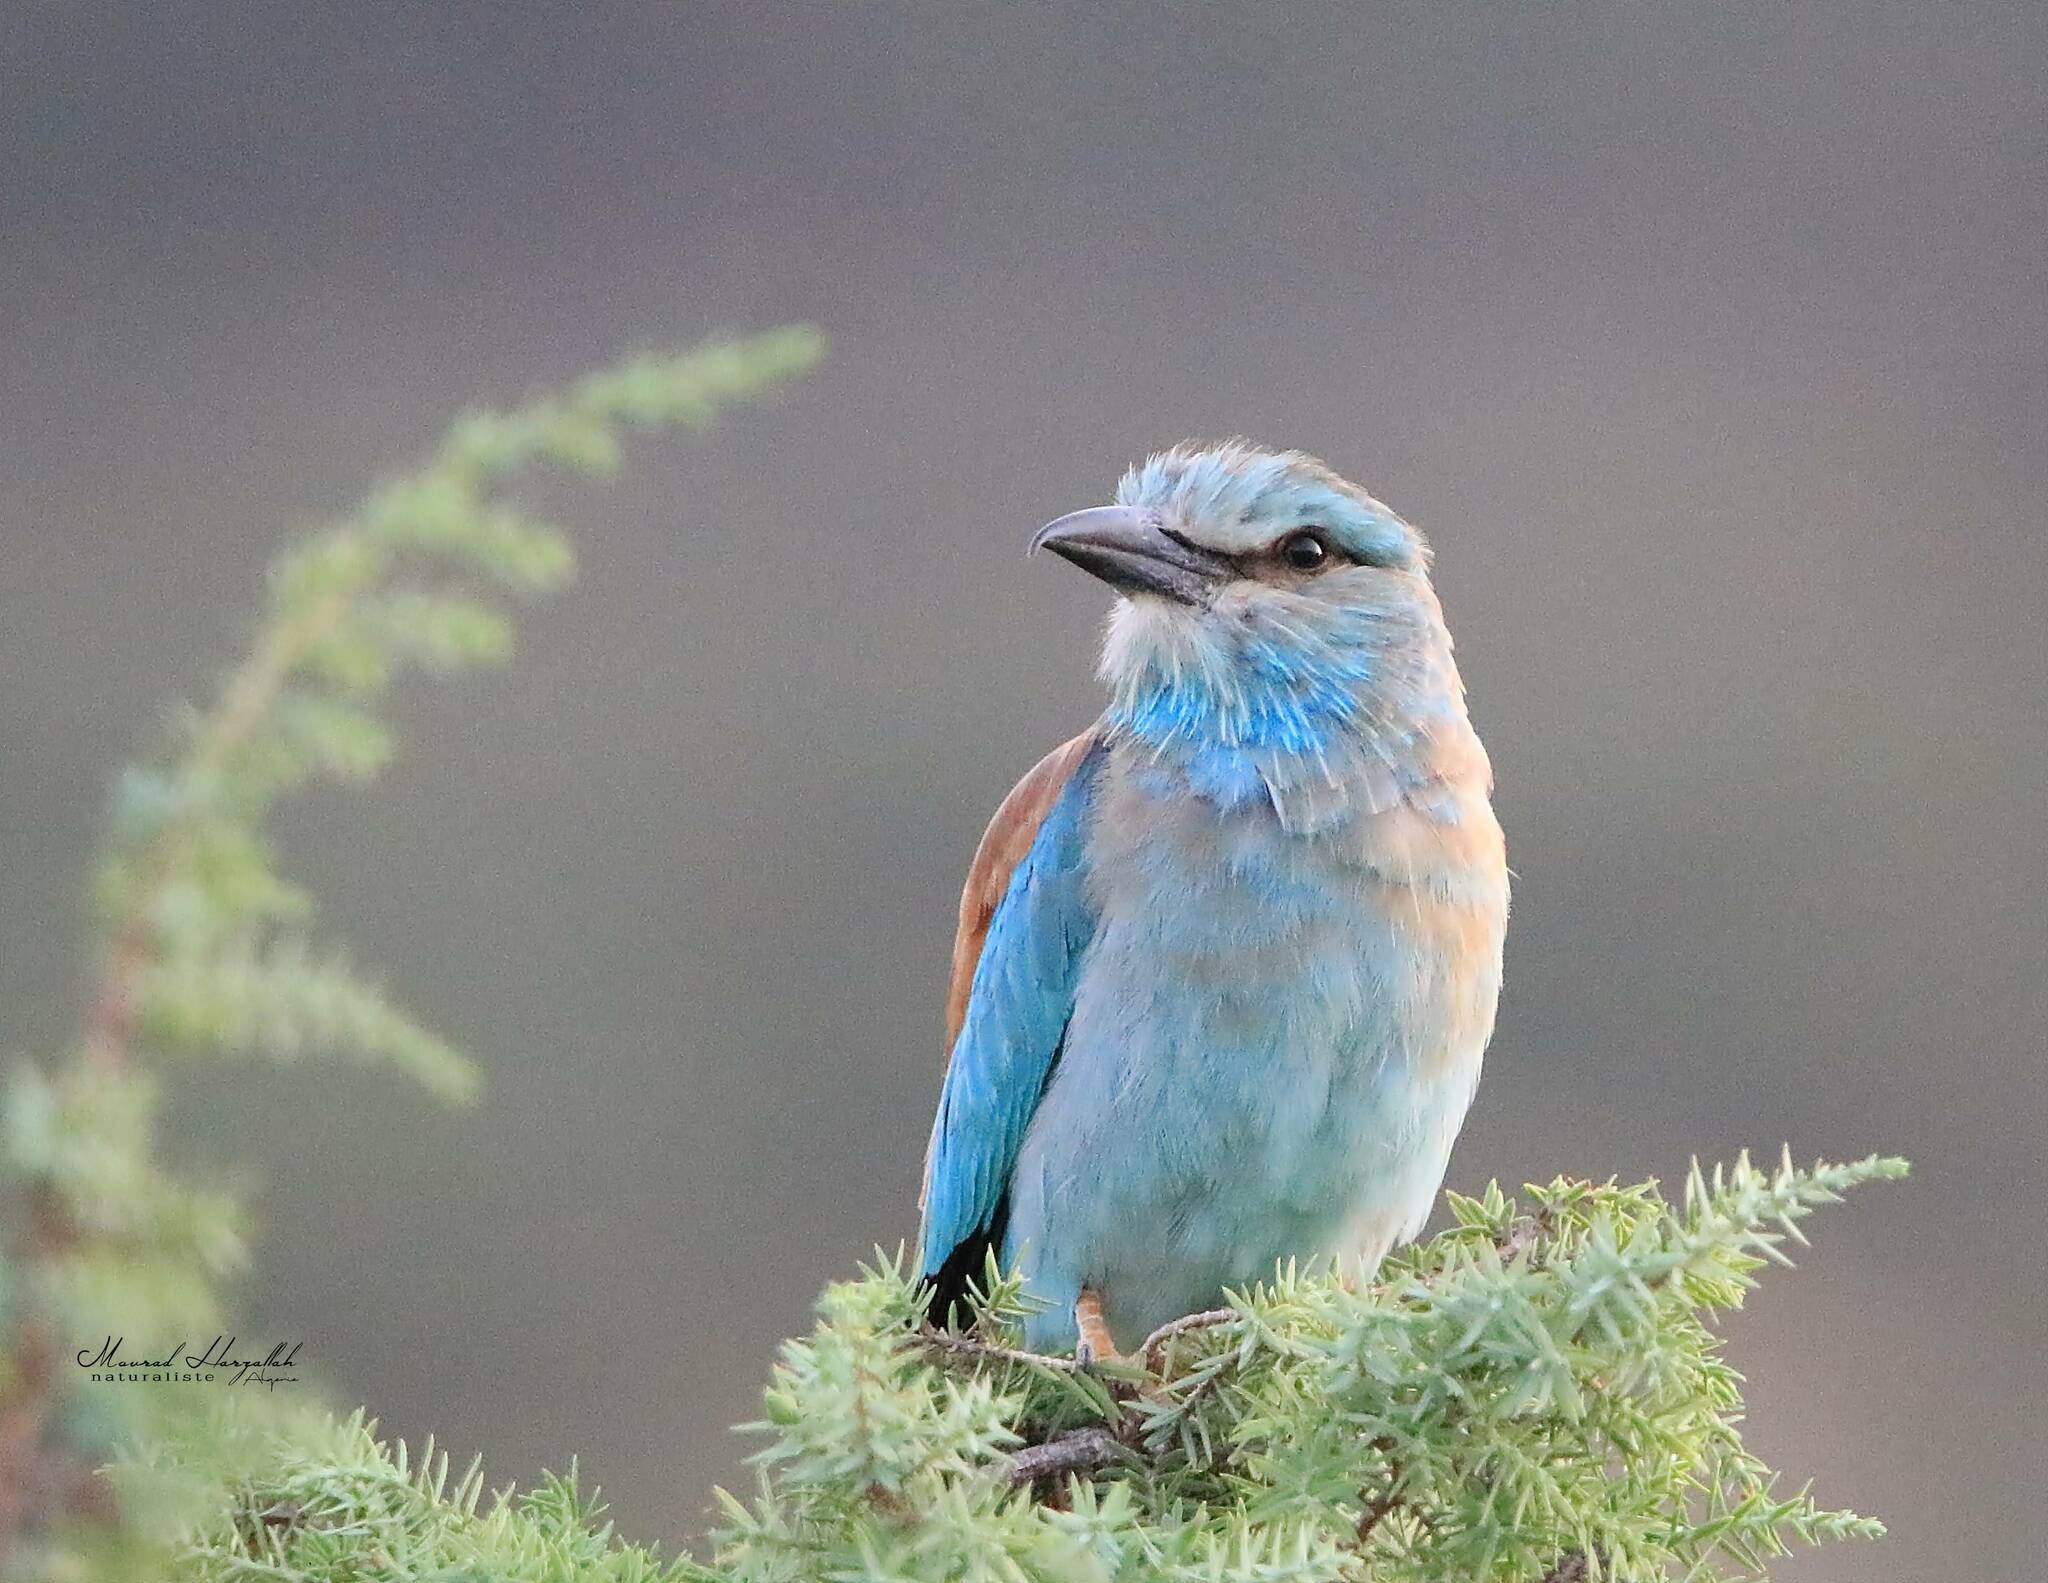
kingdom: Animalia
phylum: Chordata
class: Aves
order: Coraciiformes
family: Coraciidae
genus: Coracias
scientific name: Coracias garrulus
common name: European roller
